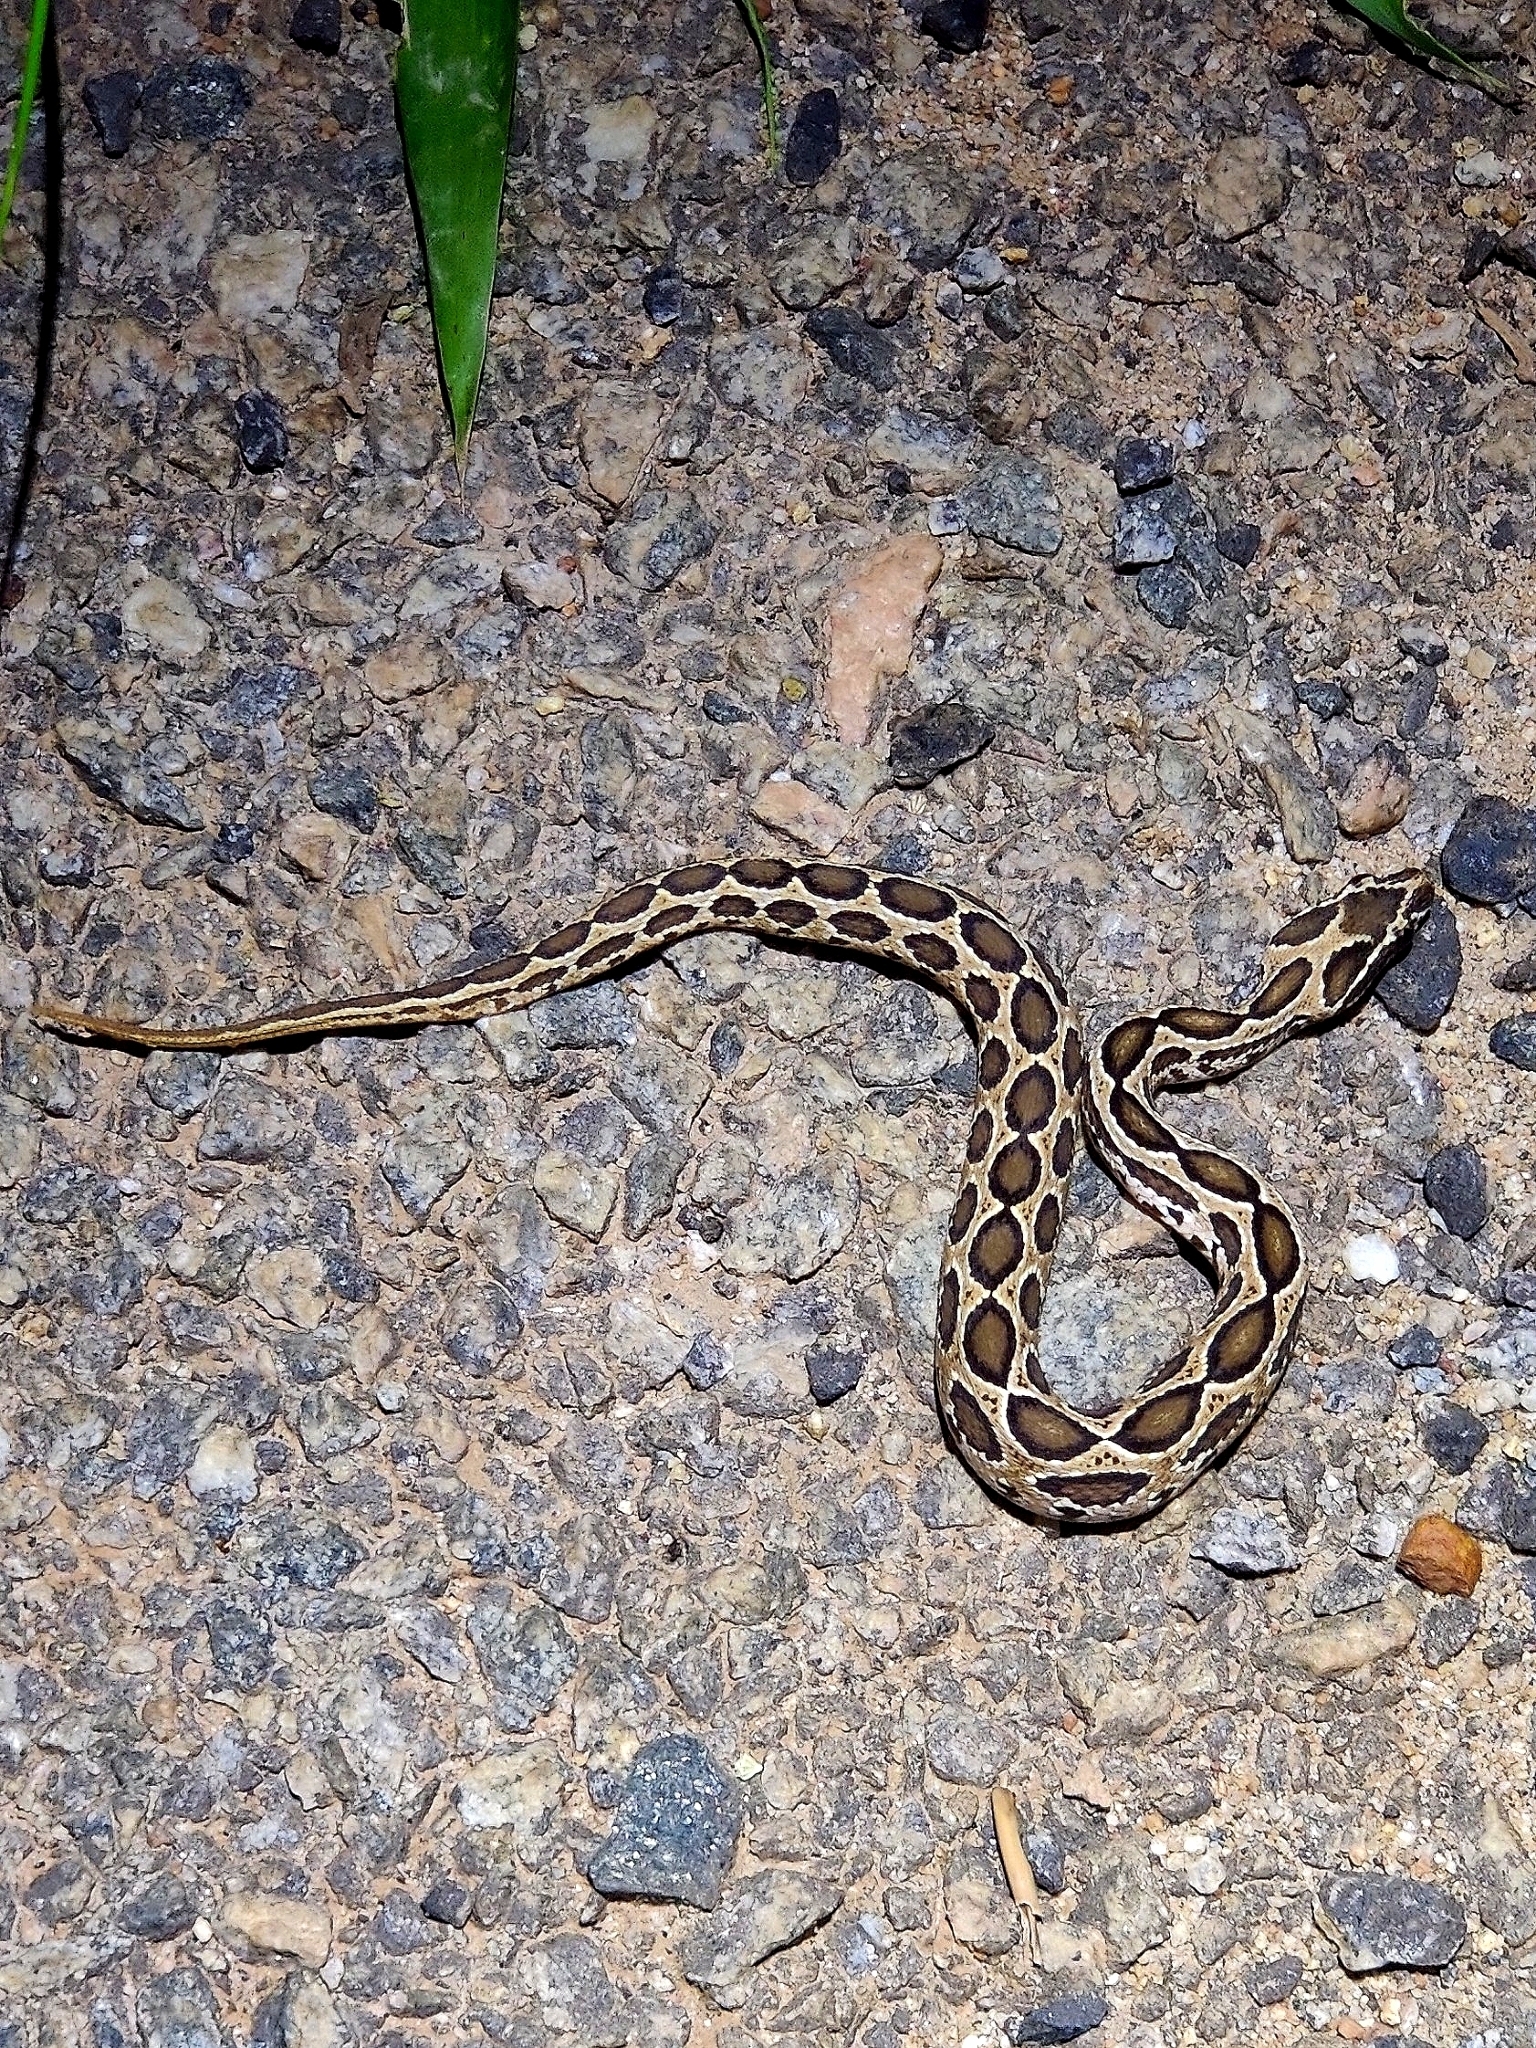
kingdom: Animalia
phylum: Chordata
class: Squamata
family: Viperidae
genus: Daboia
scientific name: Daboia russelii
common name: Western russel’s viper
